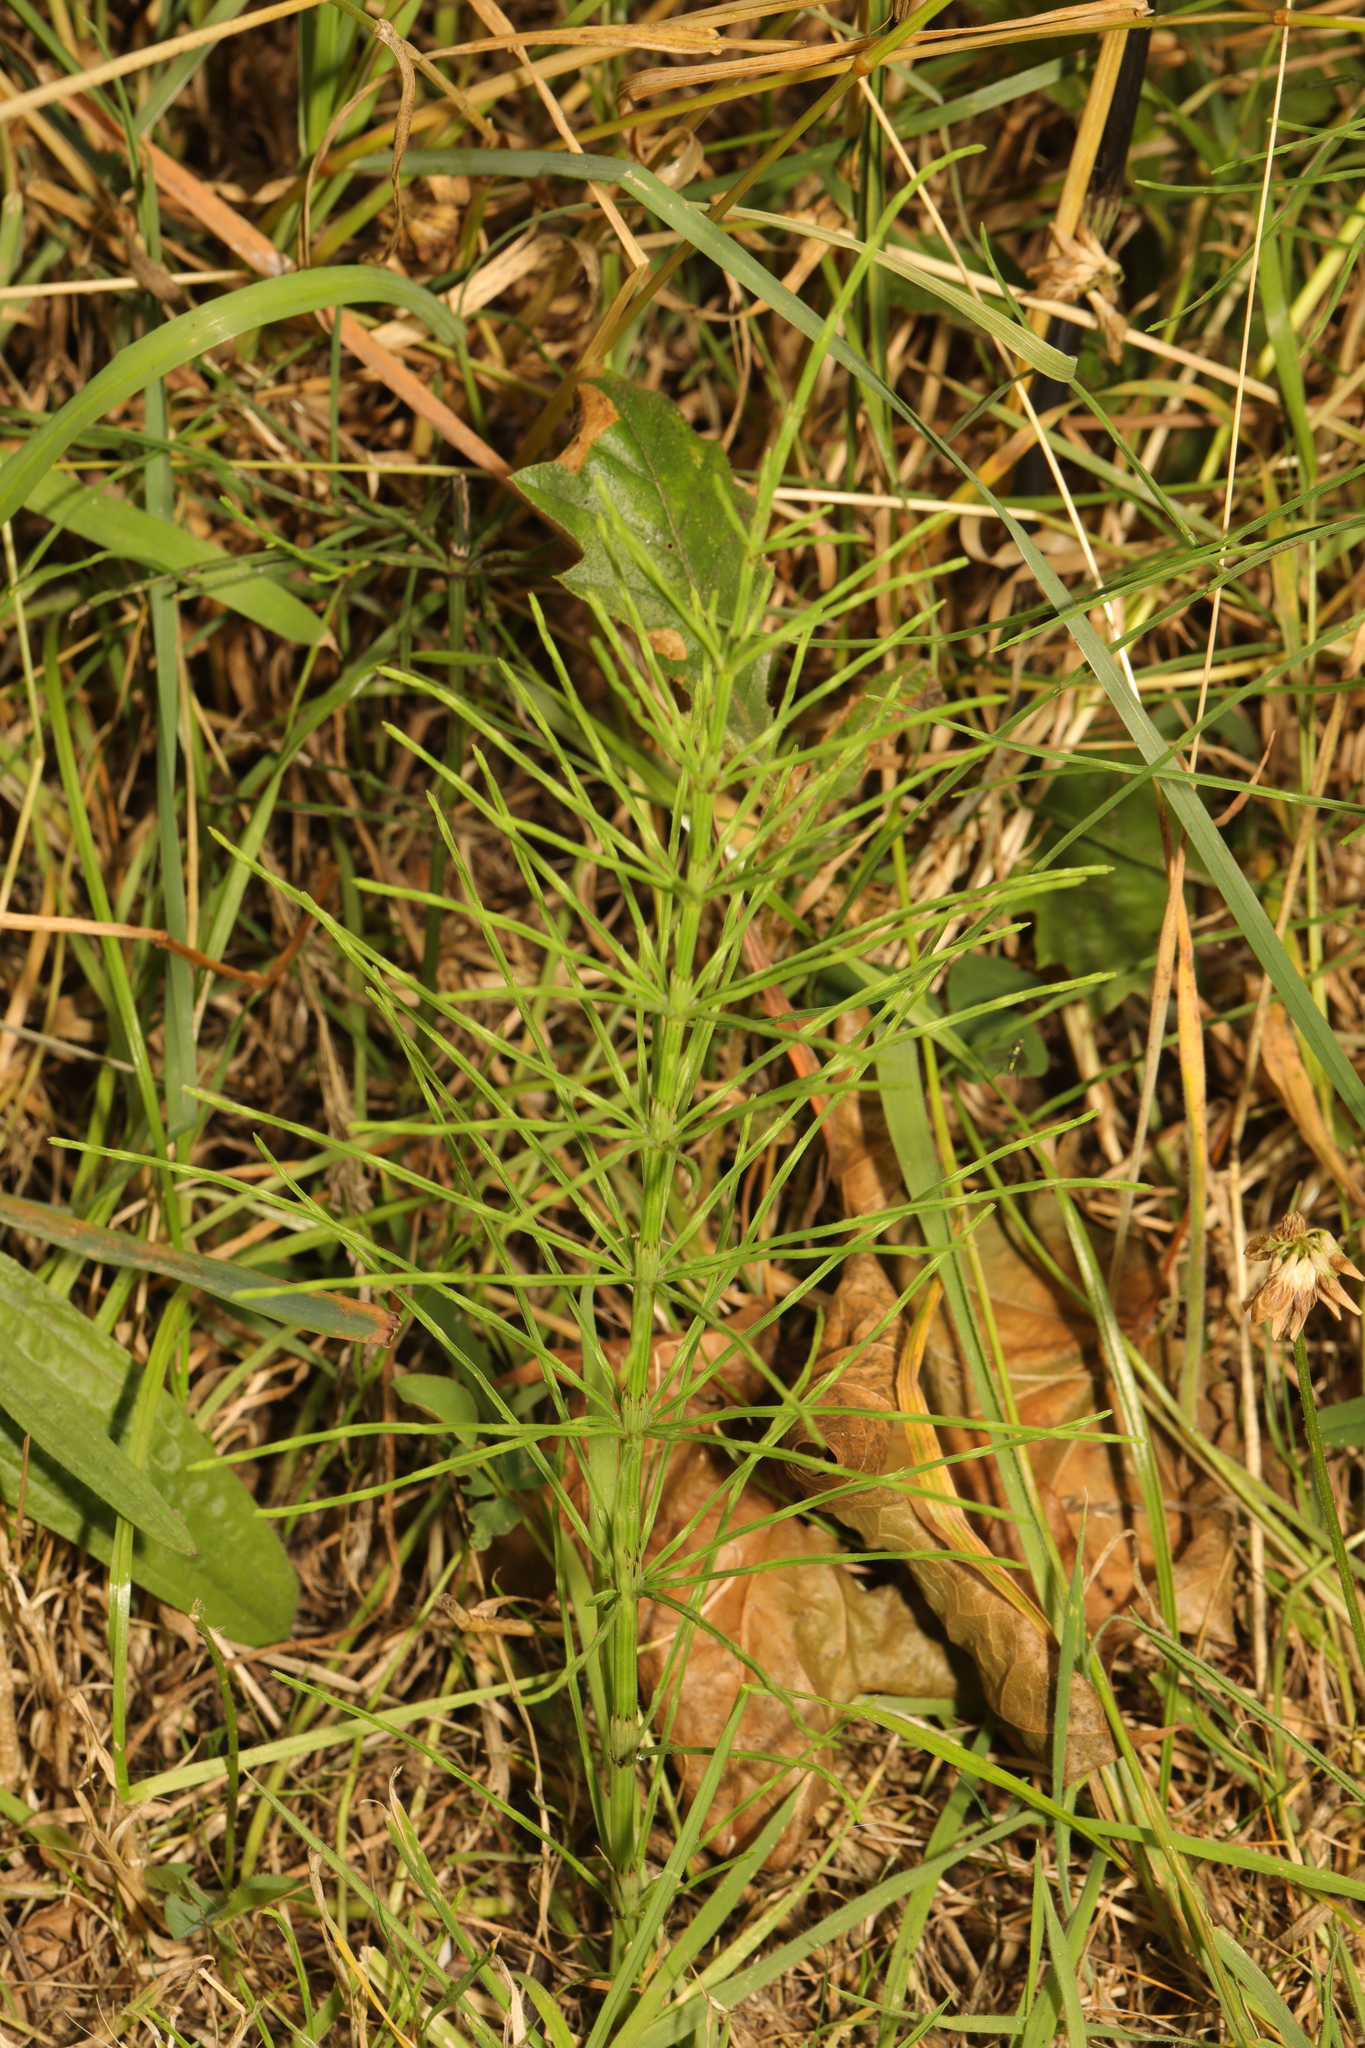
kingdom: Plantae
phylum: Tracheophyta
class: Polypodiopsida
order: Equisetales
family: Equisetaceae
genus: Equisetum
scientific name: Equisetum arvense
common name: Field horsetail
